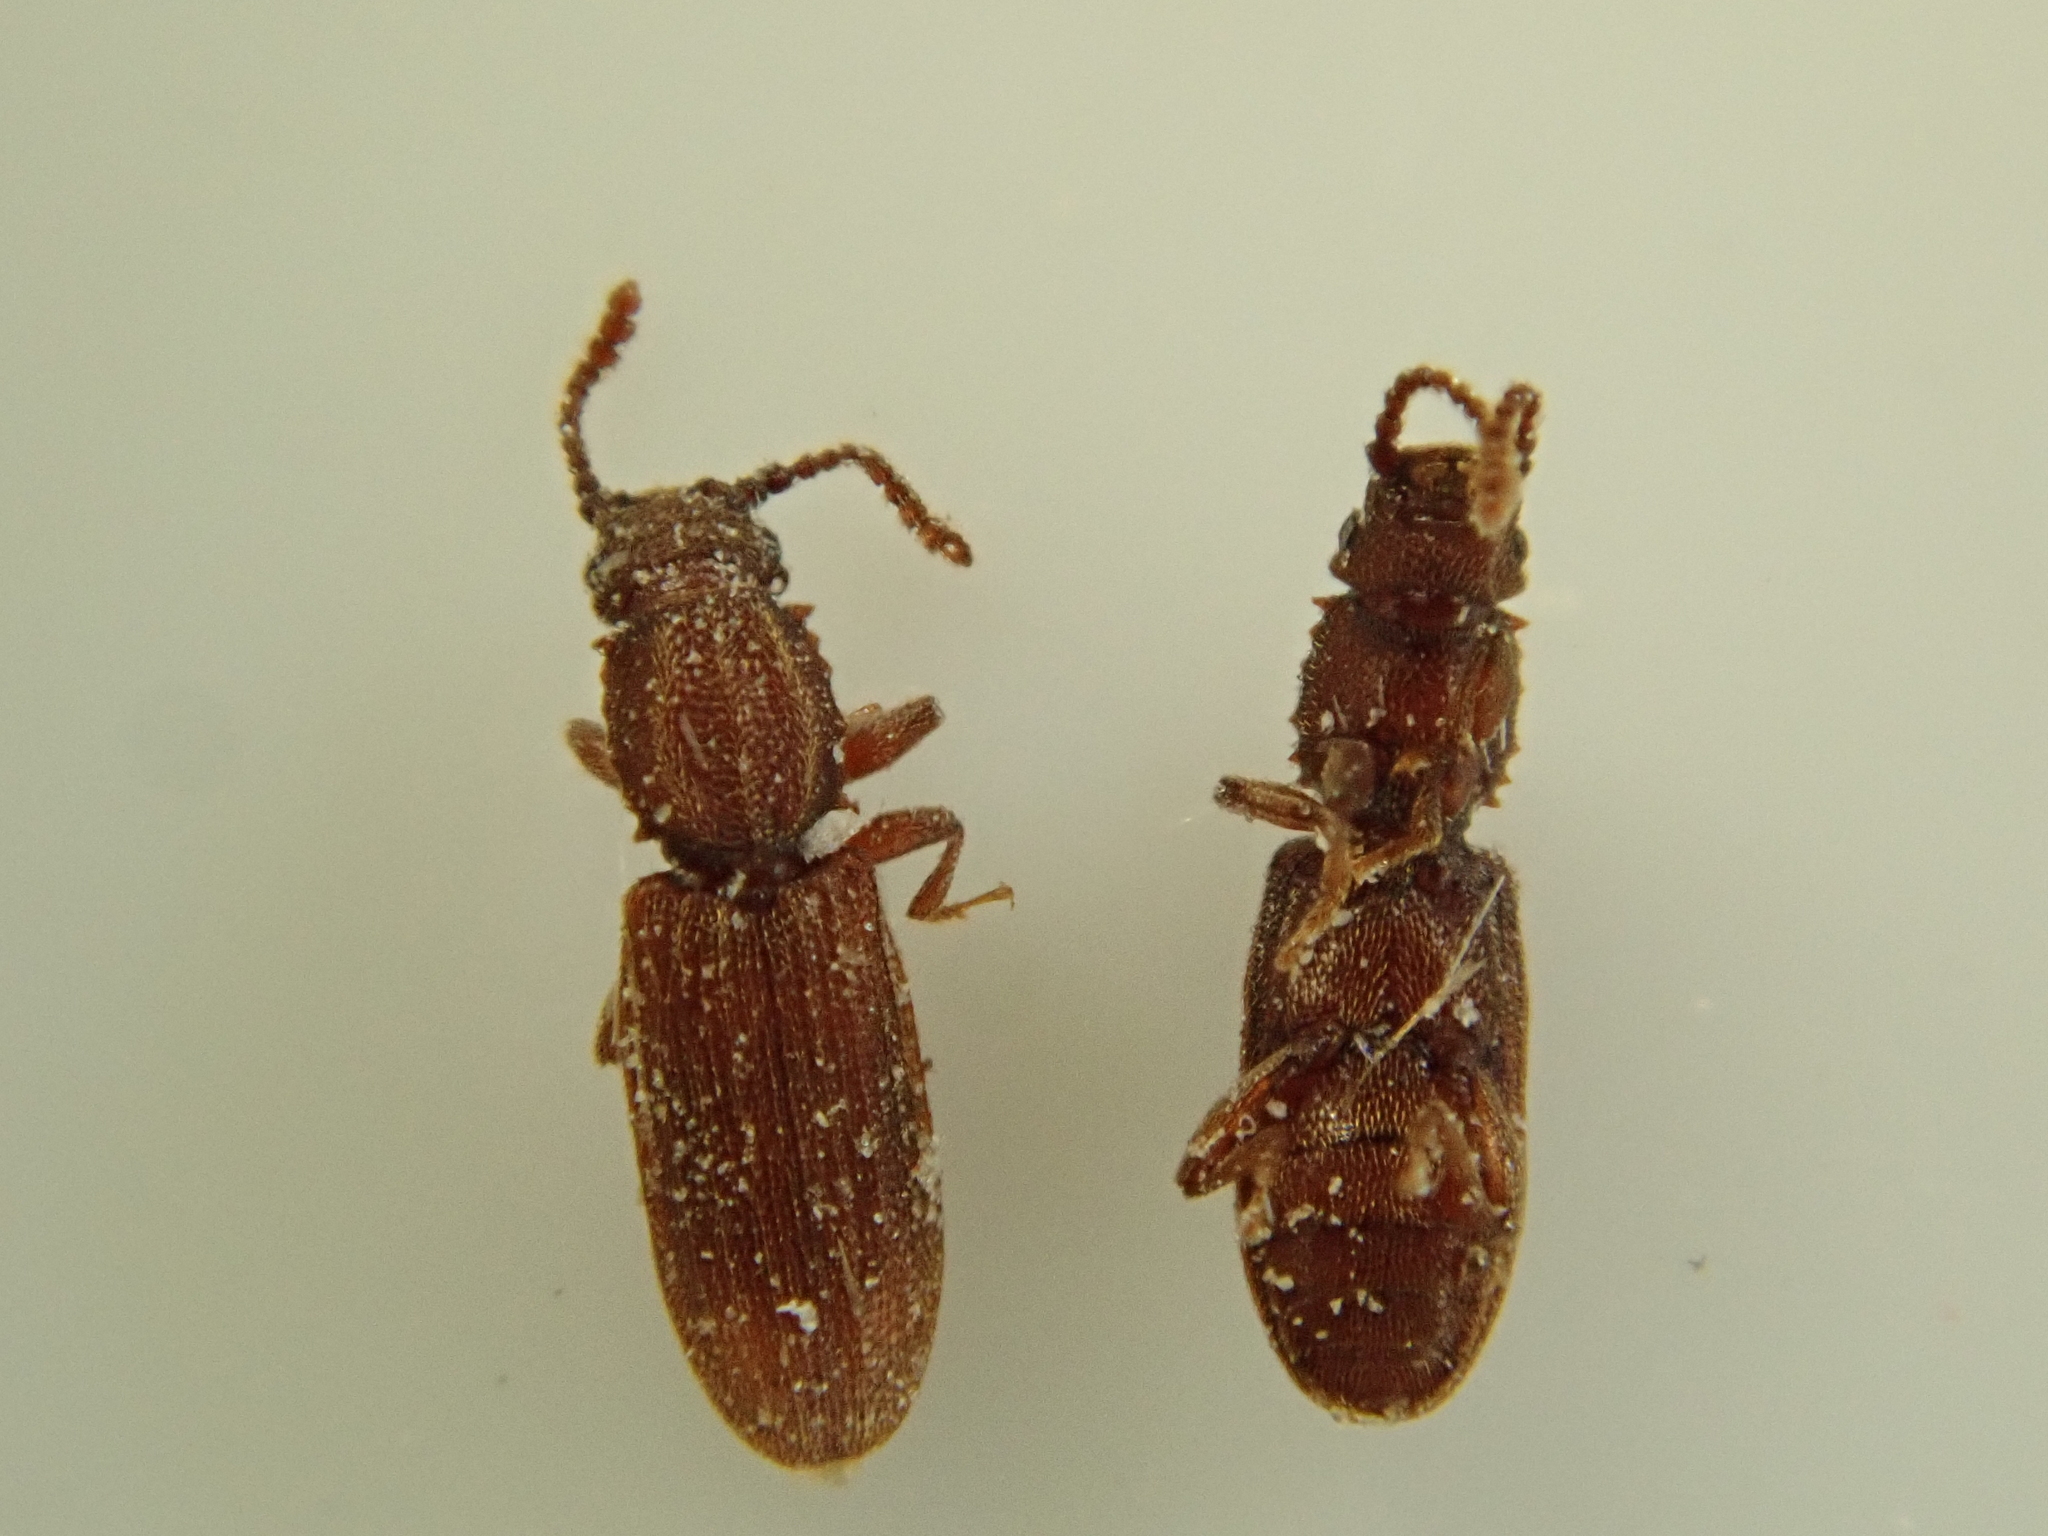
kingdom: Animalia
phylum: Arthropoda
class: Insecta
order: Coleoptera
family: Silvanidae
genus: Oryzaephilus
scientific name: Oryzaephilus surinamensis
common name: Sawtoothed grain beetle
